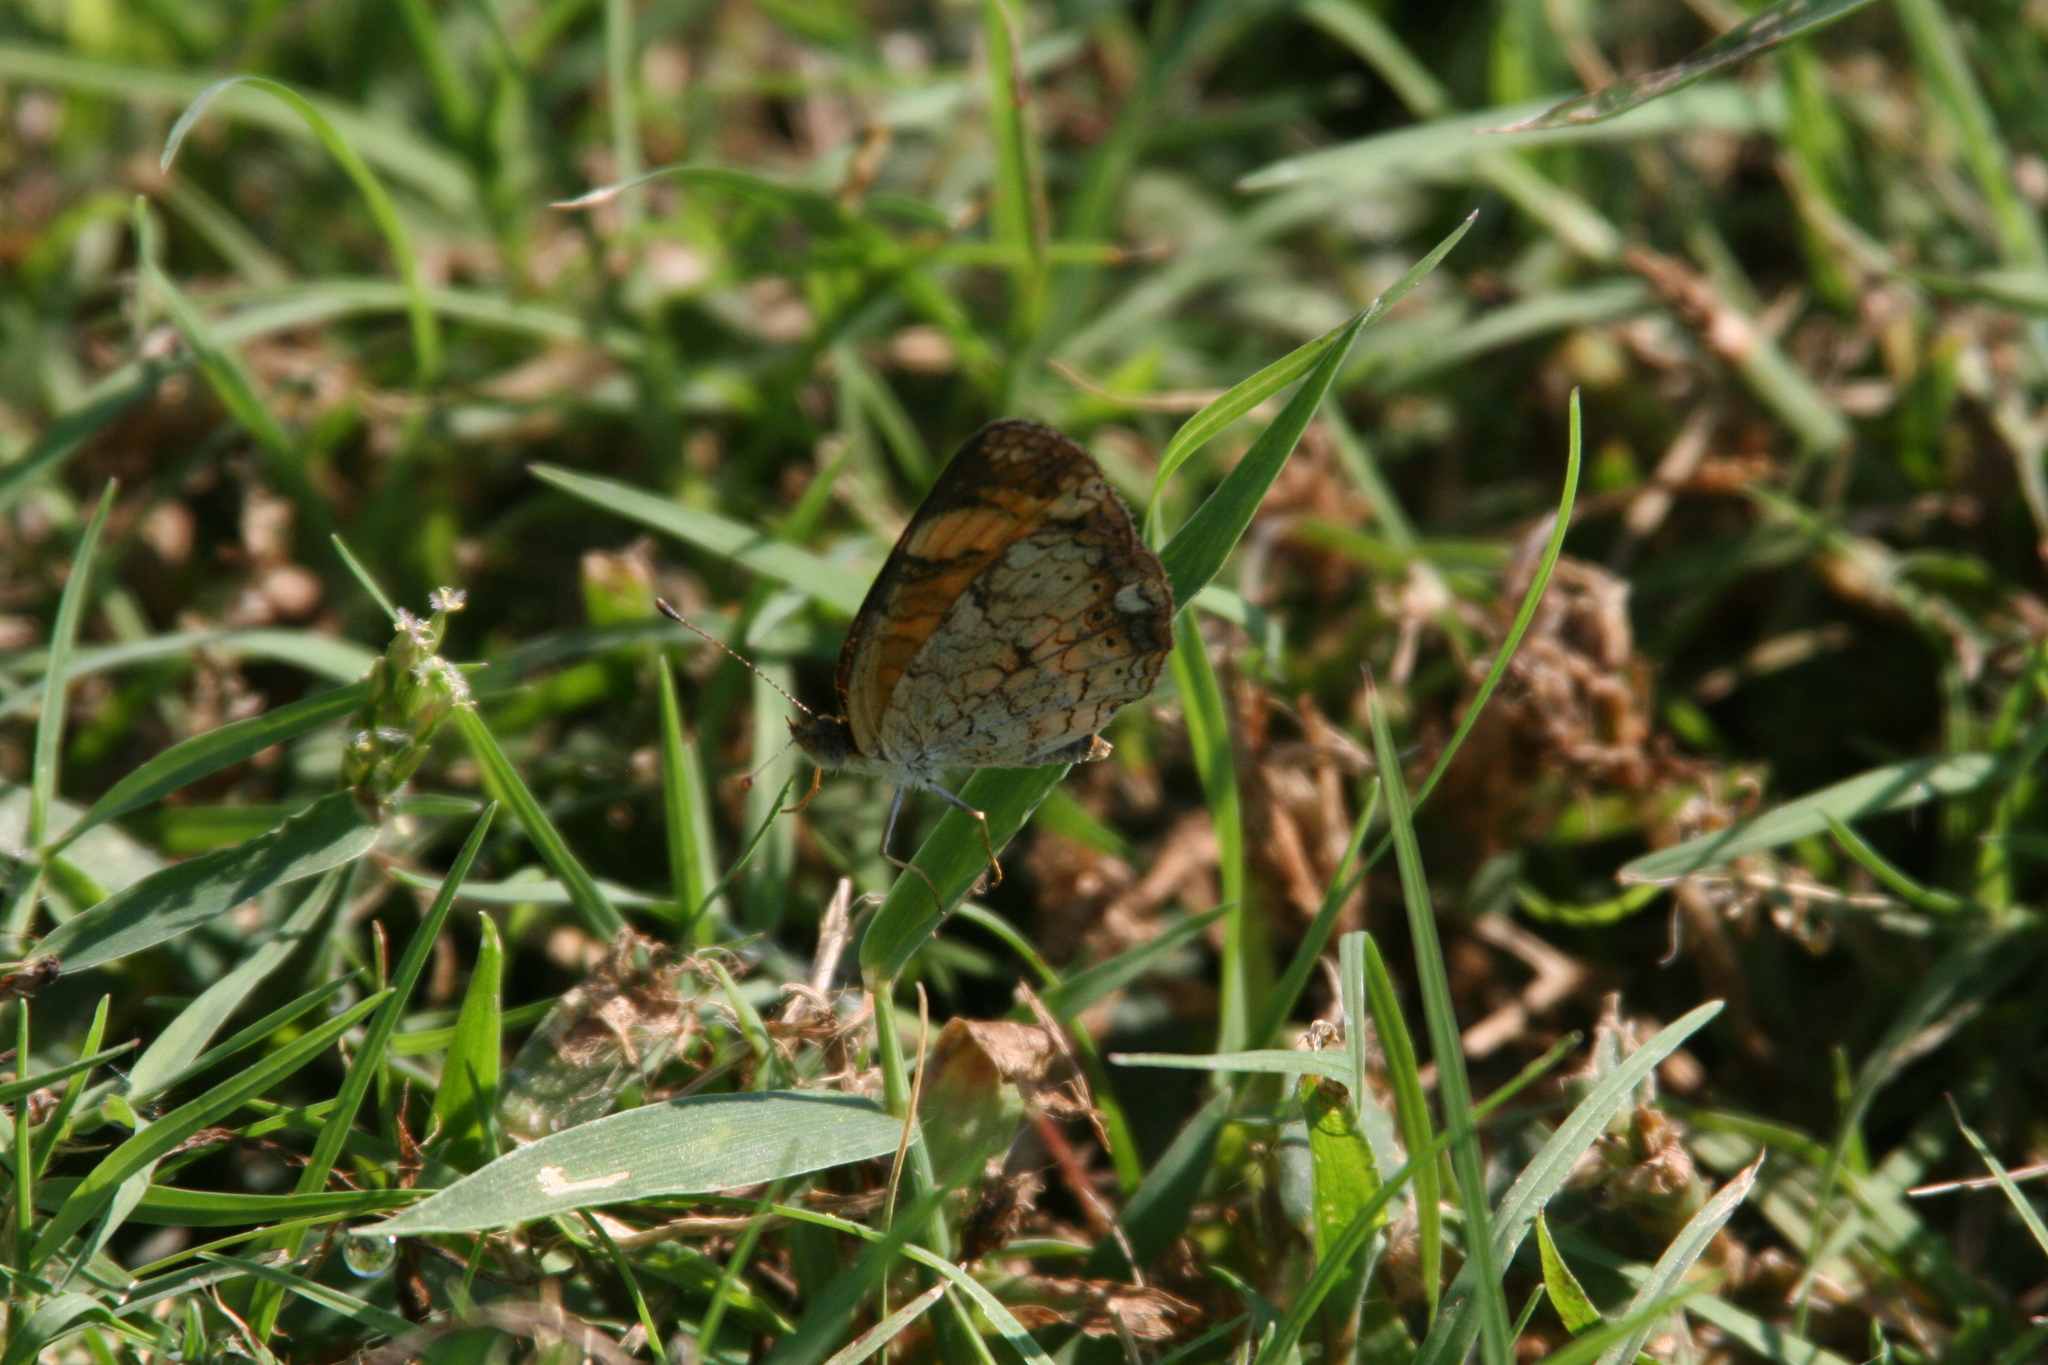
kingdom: Animalia
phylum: Arthropoda
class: Insecta
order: Lepidoptera
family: Nymphalidae
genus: Phyciodes
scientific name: Phyciodes tharos
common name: Pearl crescent
